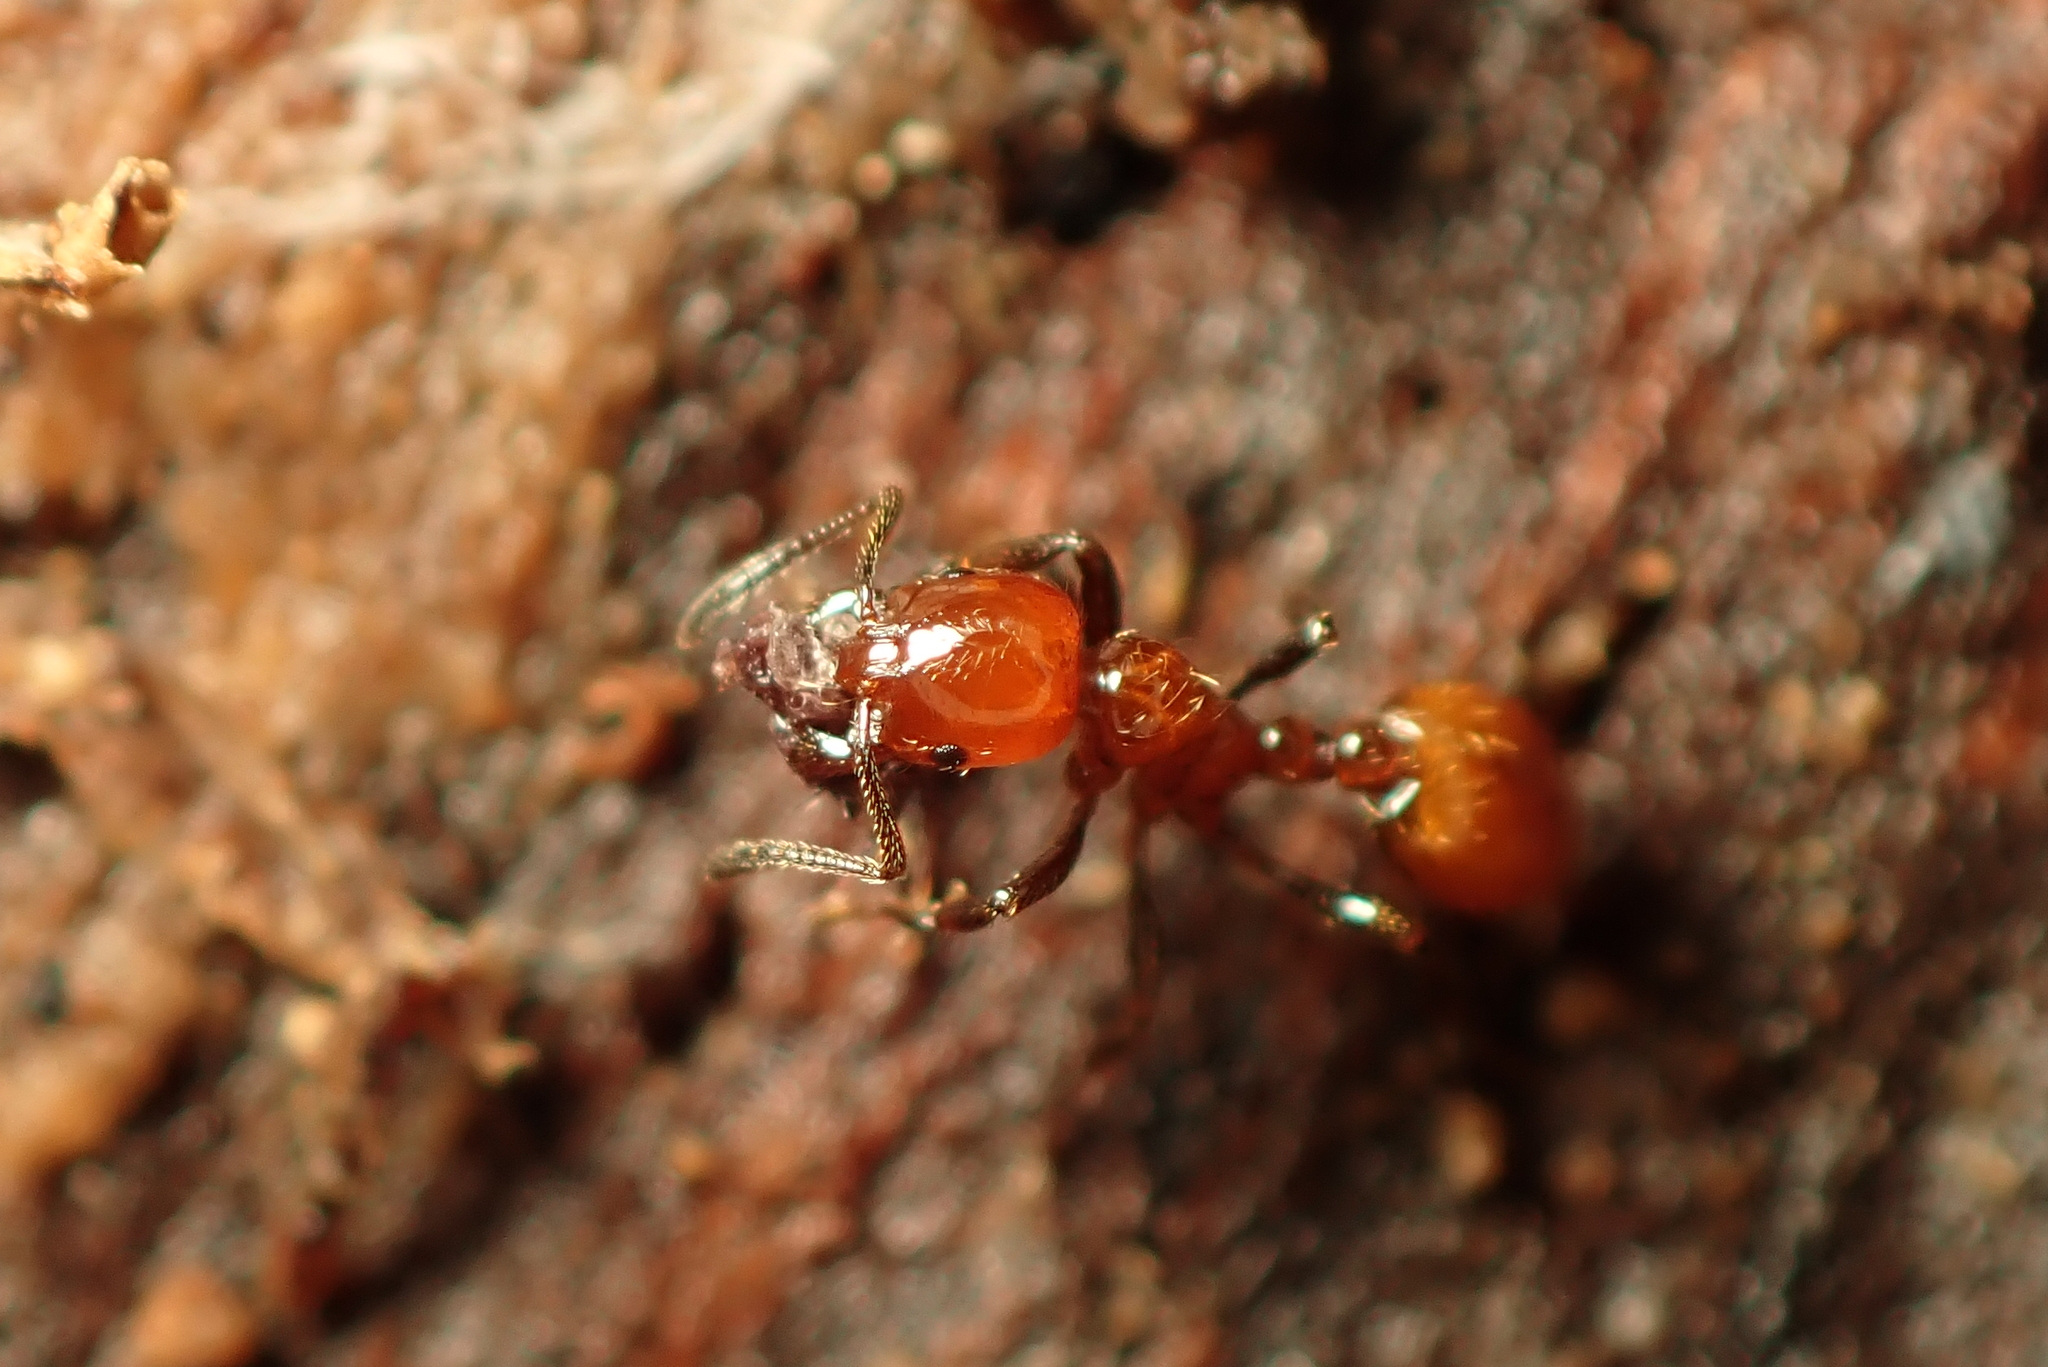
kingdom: Animalia
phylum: Arthropoda
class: Insecta
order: Hymenoptera
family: Formicidae
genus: Monomorium
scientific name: Monomorium antarcticum
